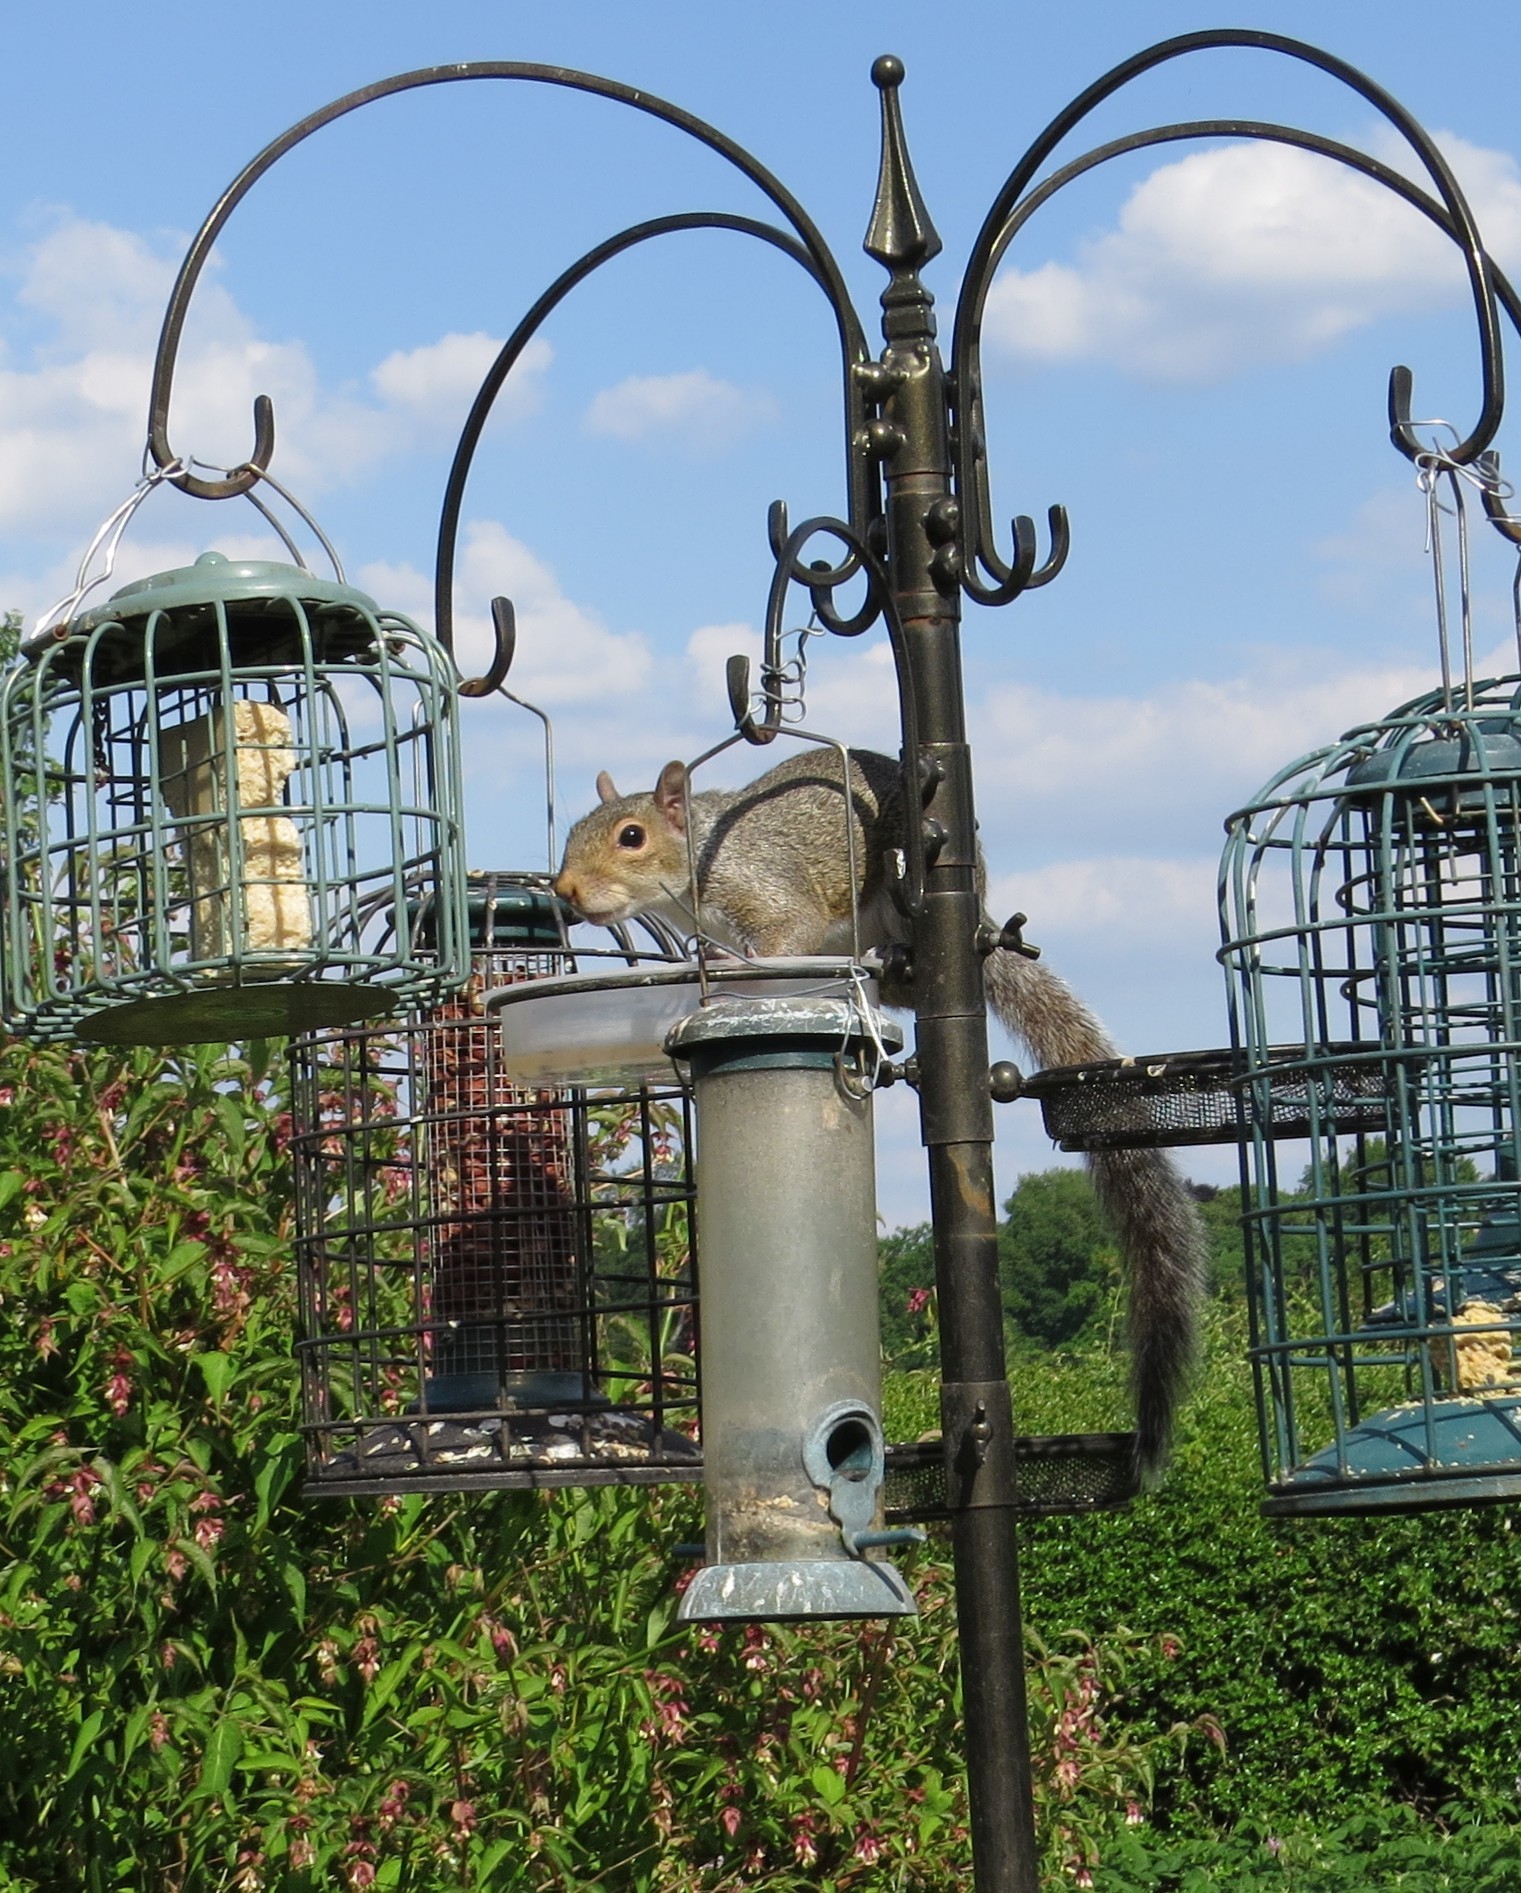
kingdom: Animalia
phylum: Chordata
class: Mammalia
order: Rodentia
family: Sciuridae
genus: Sciurus
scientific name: Sciurus carolinensis
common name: Eastern gray squirrel
